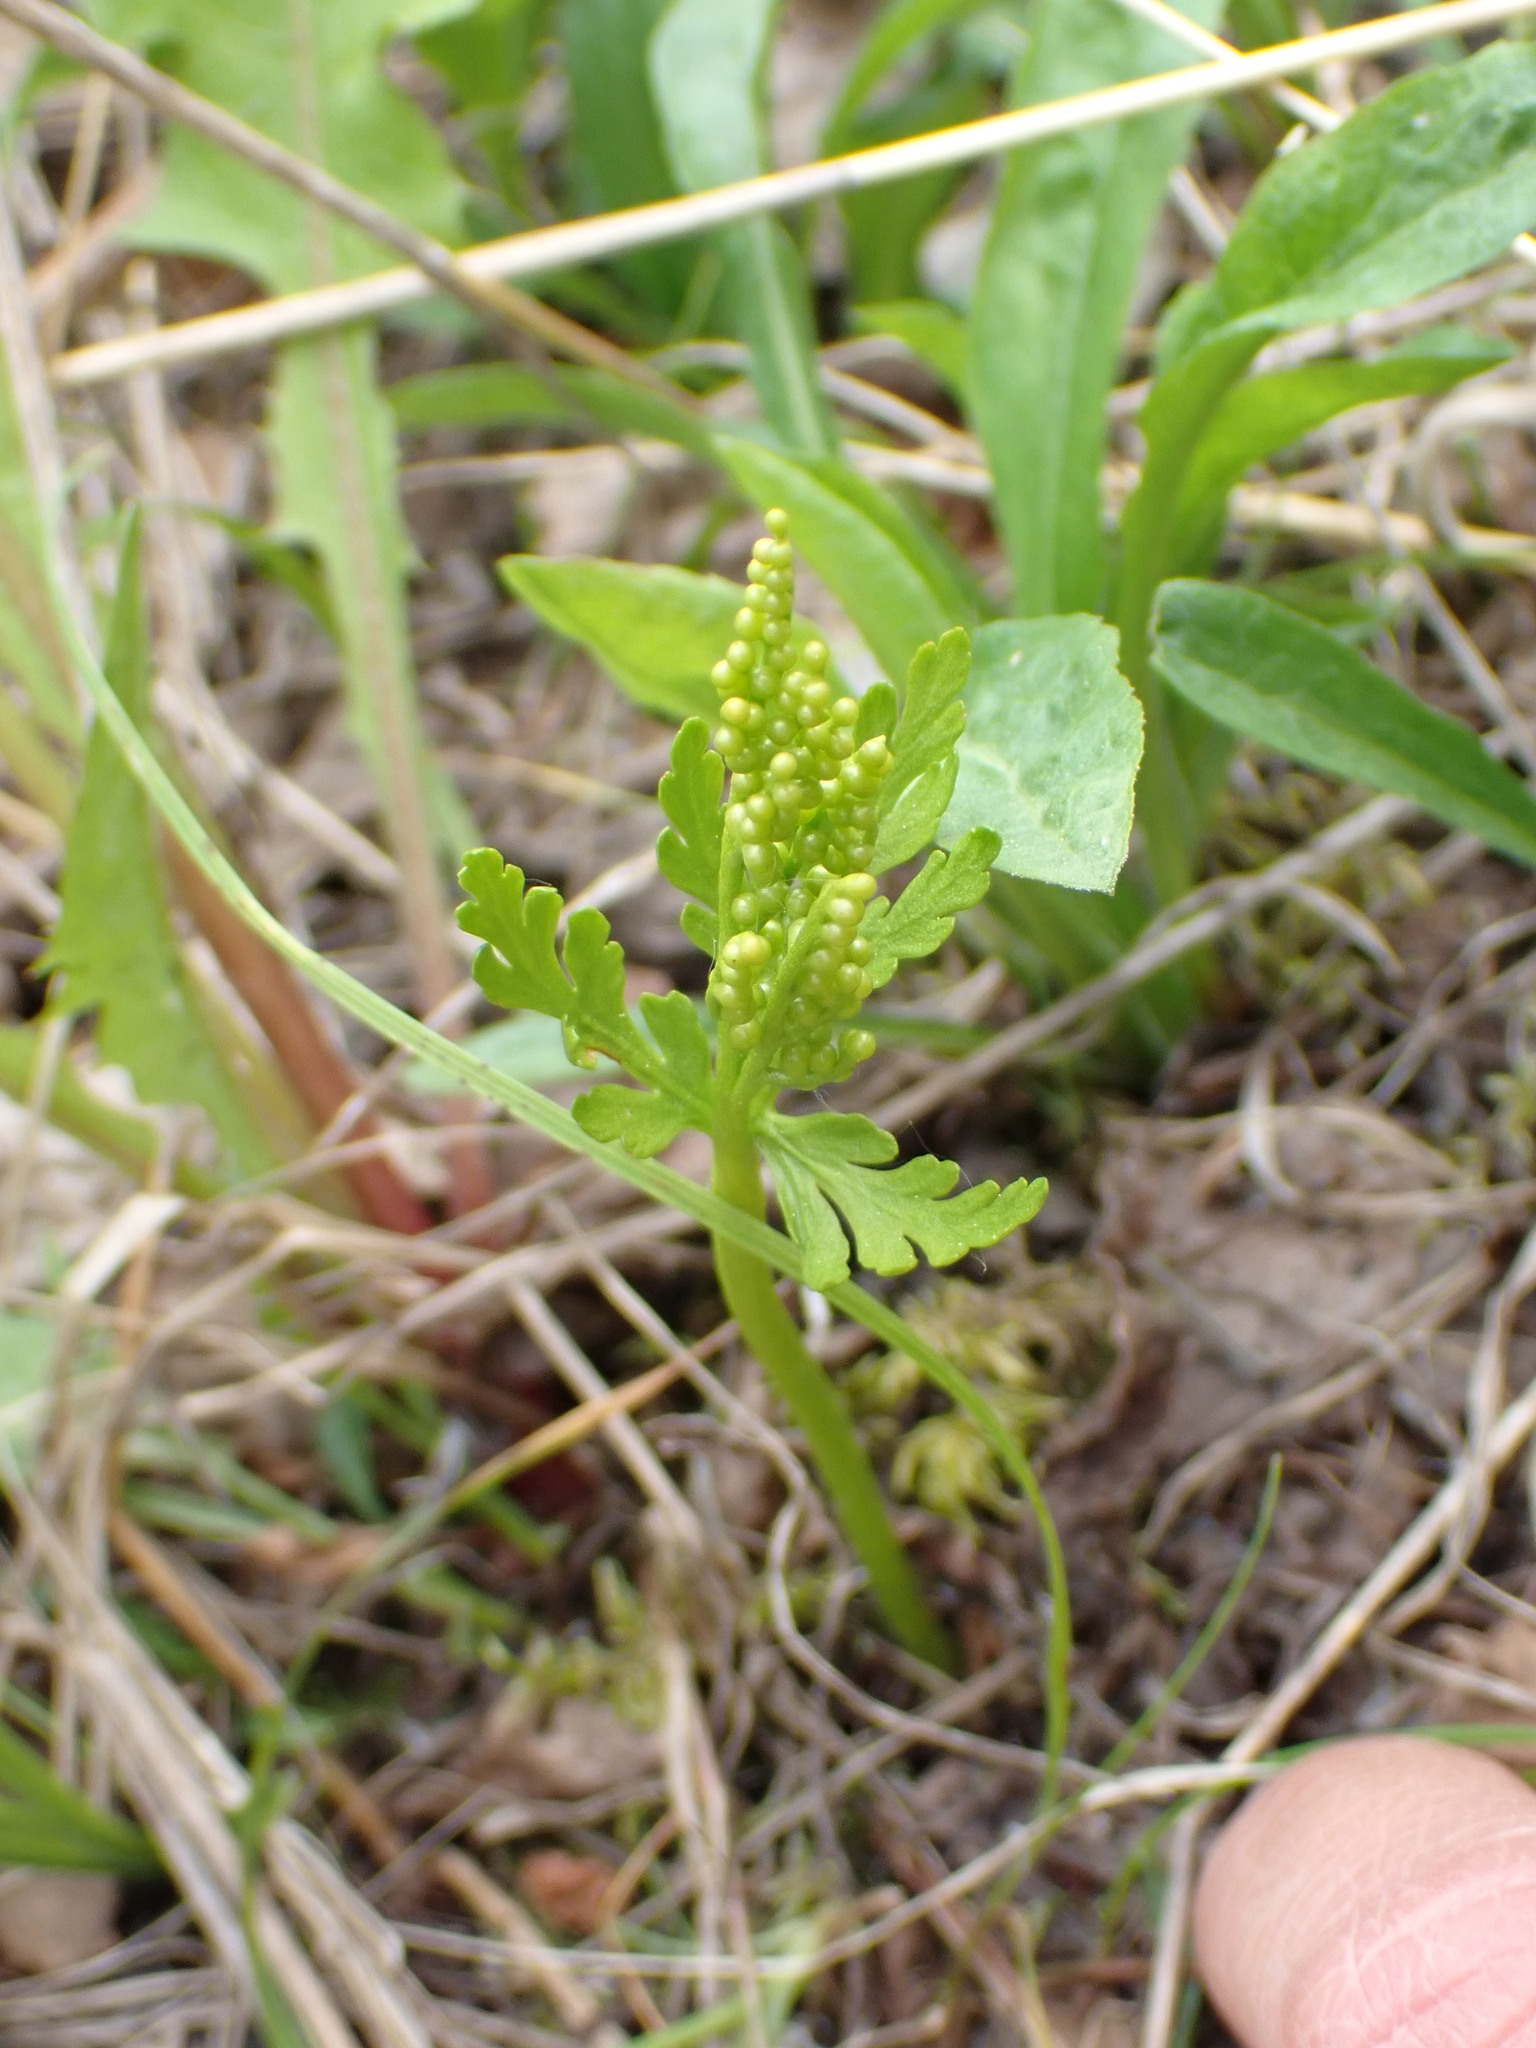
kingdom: Plantae
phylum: Tracheophyta
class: Polypodiopsida
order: Ophioglossales
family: Ophioglossaceae
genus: Botrychium
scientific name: Botrychium lanceolatum
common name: Lance-leaved moonwort
